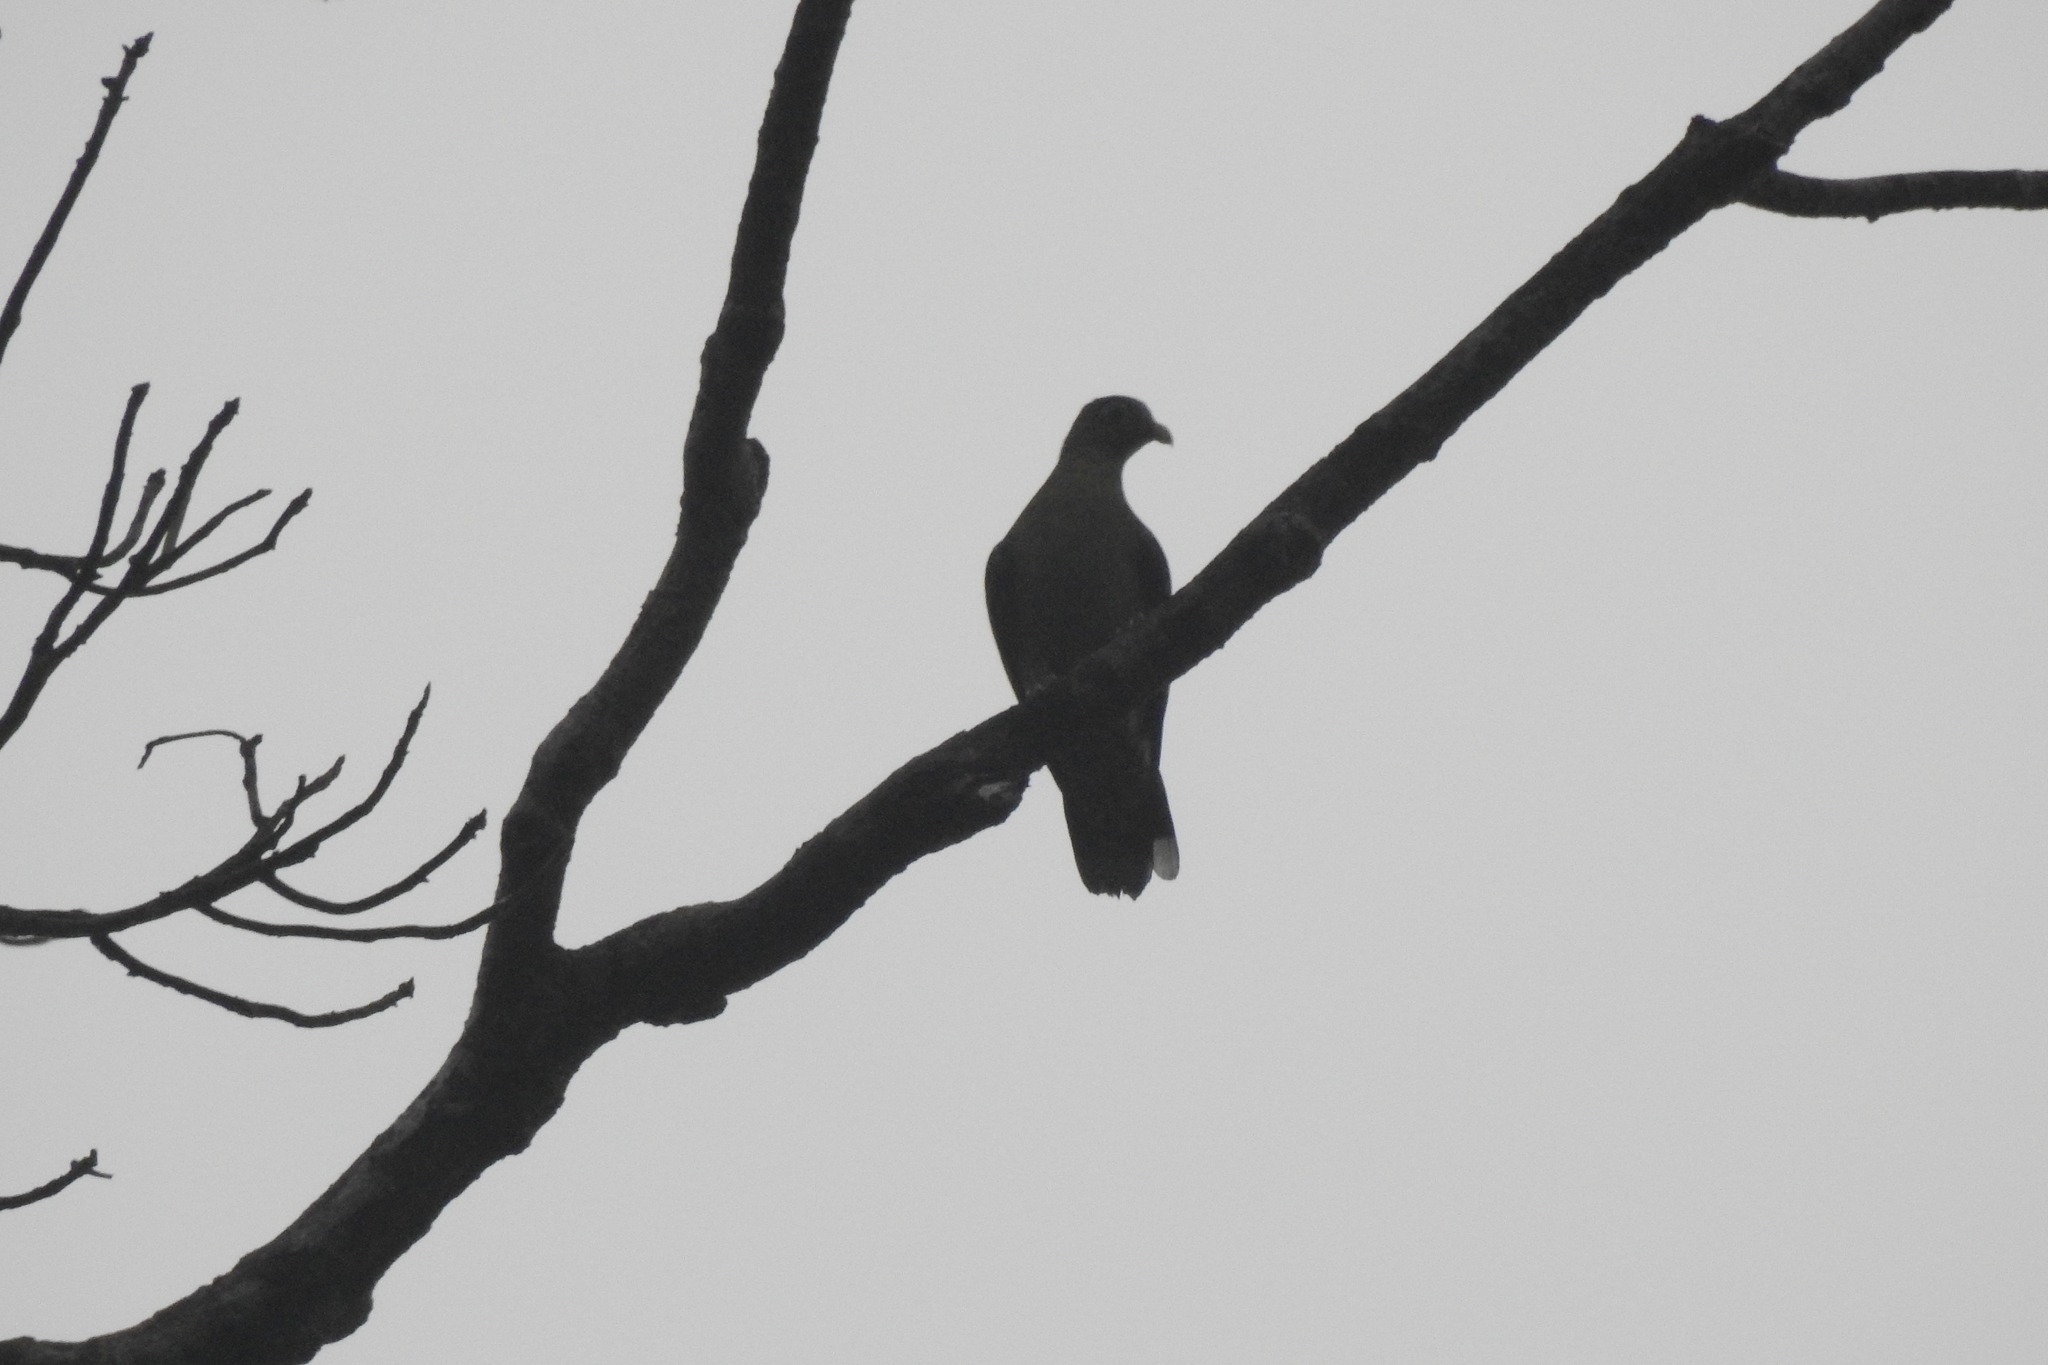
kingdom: Animalia
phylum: Chordata
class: Aves
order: Columbiformes
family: Columbidae
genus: Treron
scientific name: Treron curvirostra
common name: Thick-billed green pigeon
